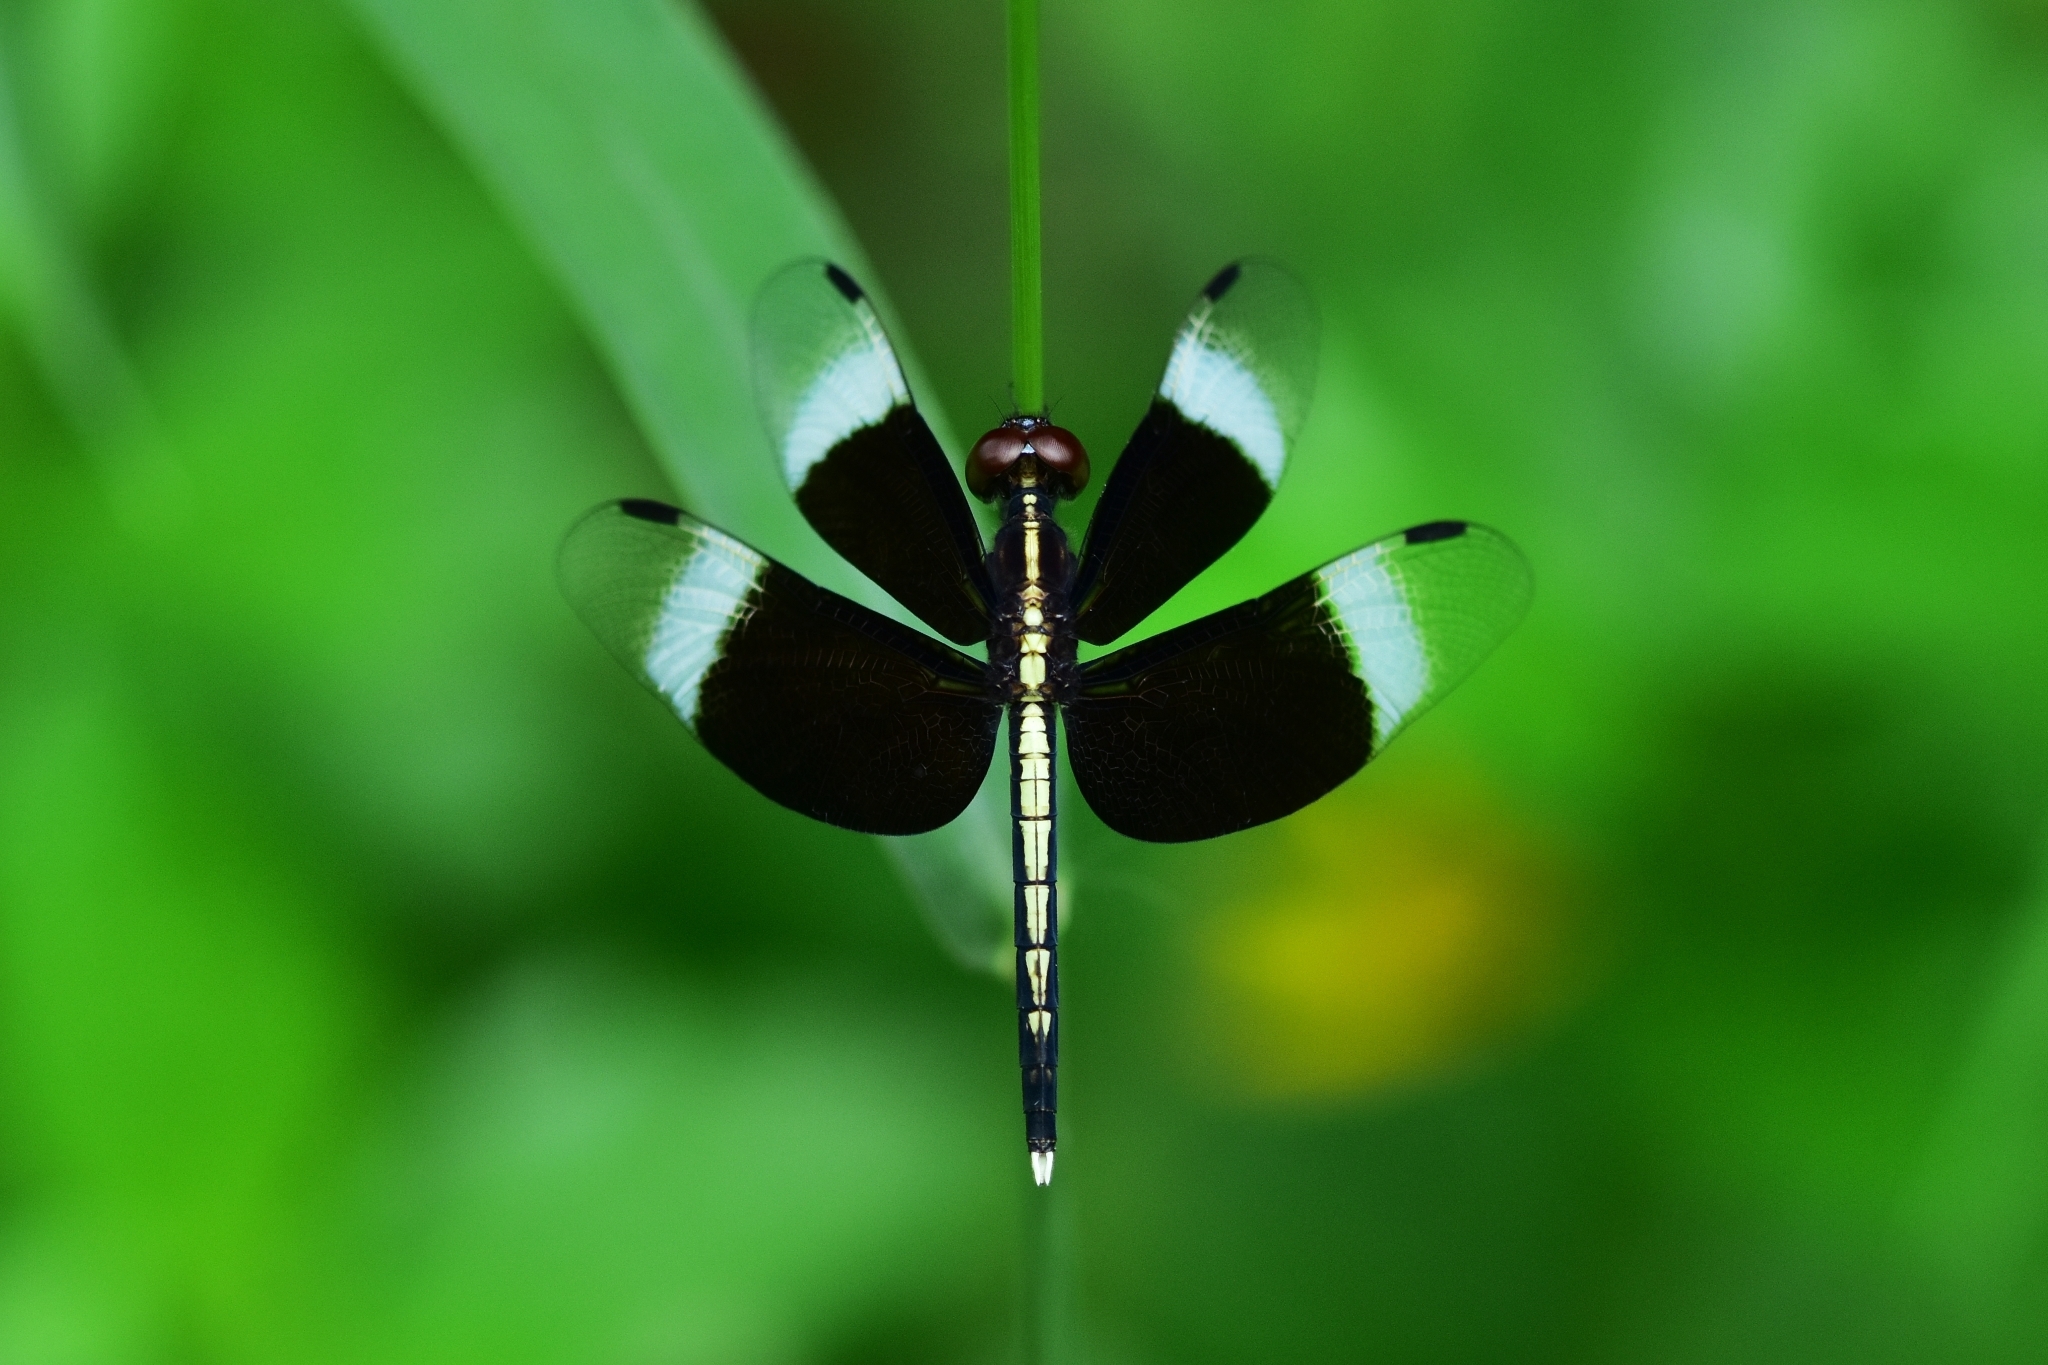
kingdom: Animalia
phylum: Arthropoda
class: Insecta
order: Odonata
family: Libellulidae
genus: Neurothemis
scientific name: Neurothemis tullia
